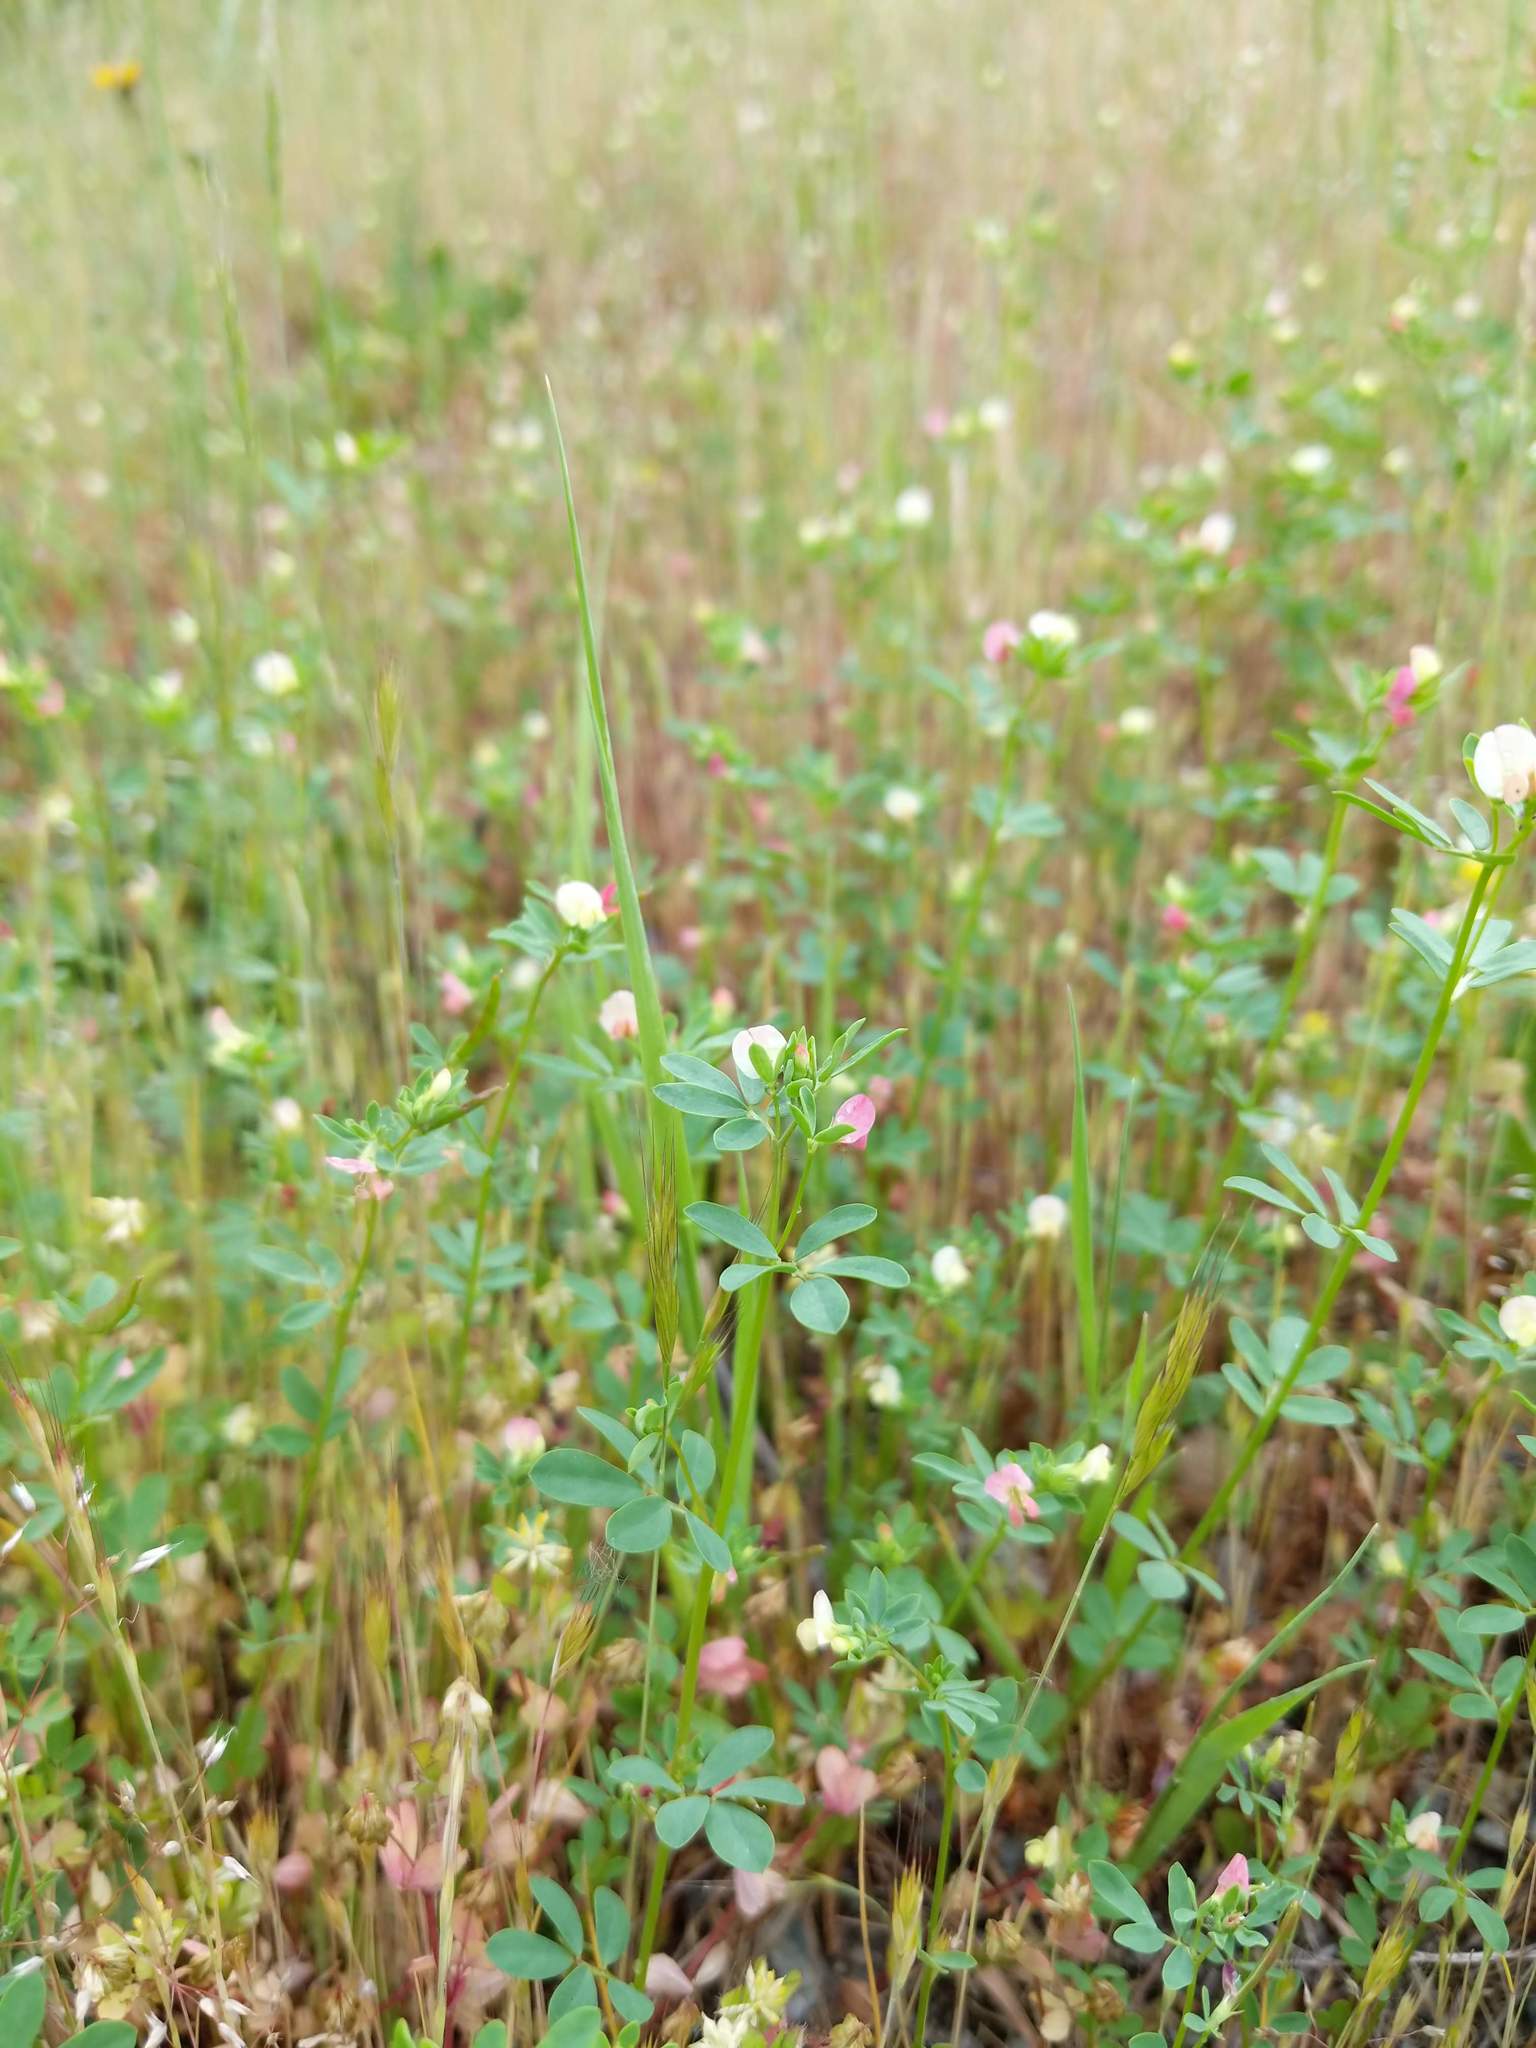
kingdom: Plantae
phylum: Tracheophyta
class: Magnoliopsida
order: Fabales
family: Fabaceae
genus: Acmispon
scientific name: Acmispon parviflorus
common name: Desert deer-vetch
